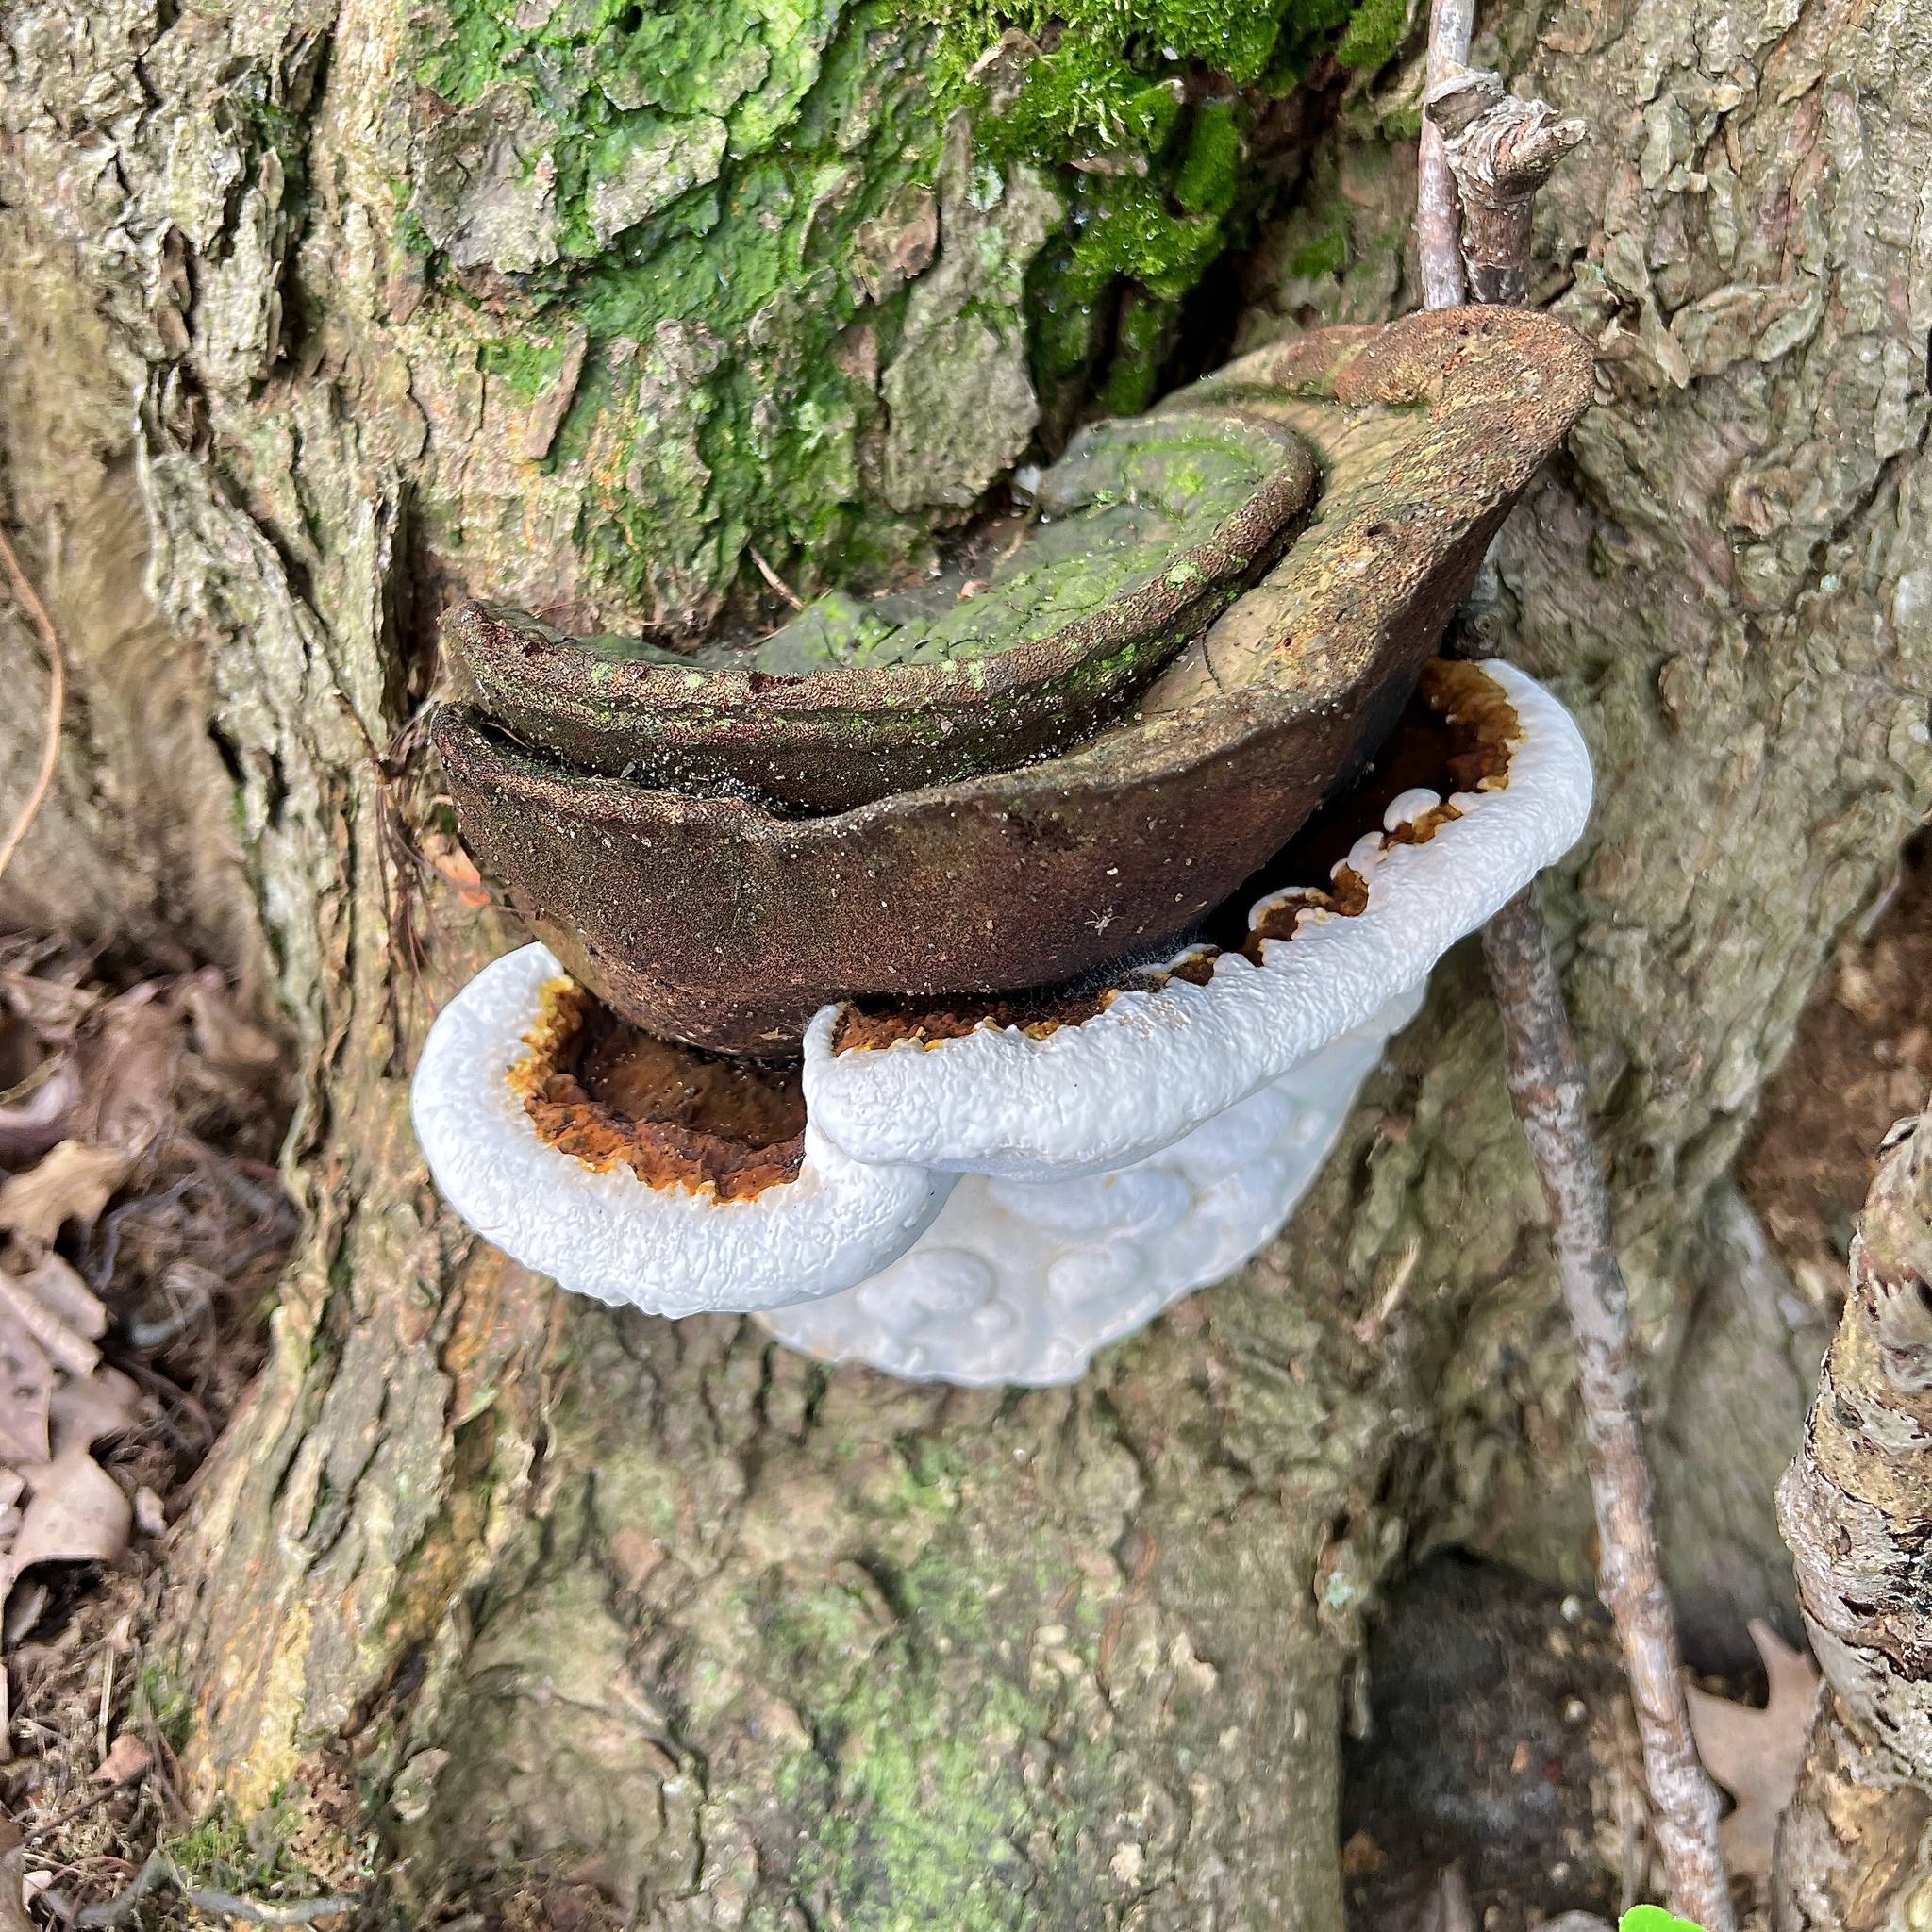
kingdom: Fungi
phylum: Basidiomycota
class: Agaricomycetes
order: Polyporales
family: Polyporaceae
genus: Ganoderma
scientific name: Ganoderma lobatum
